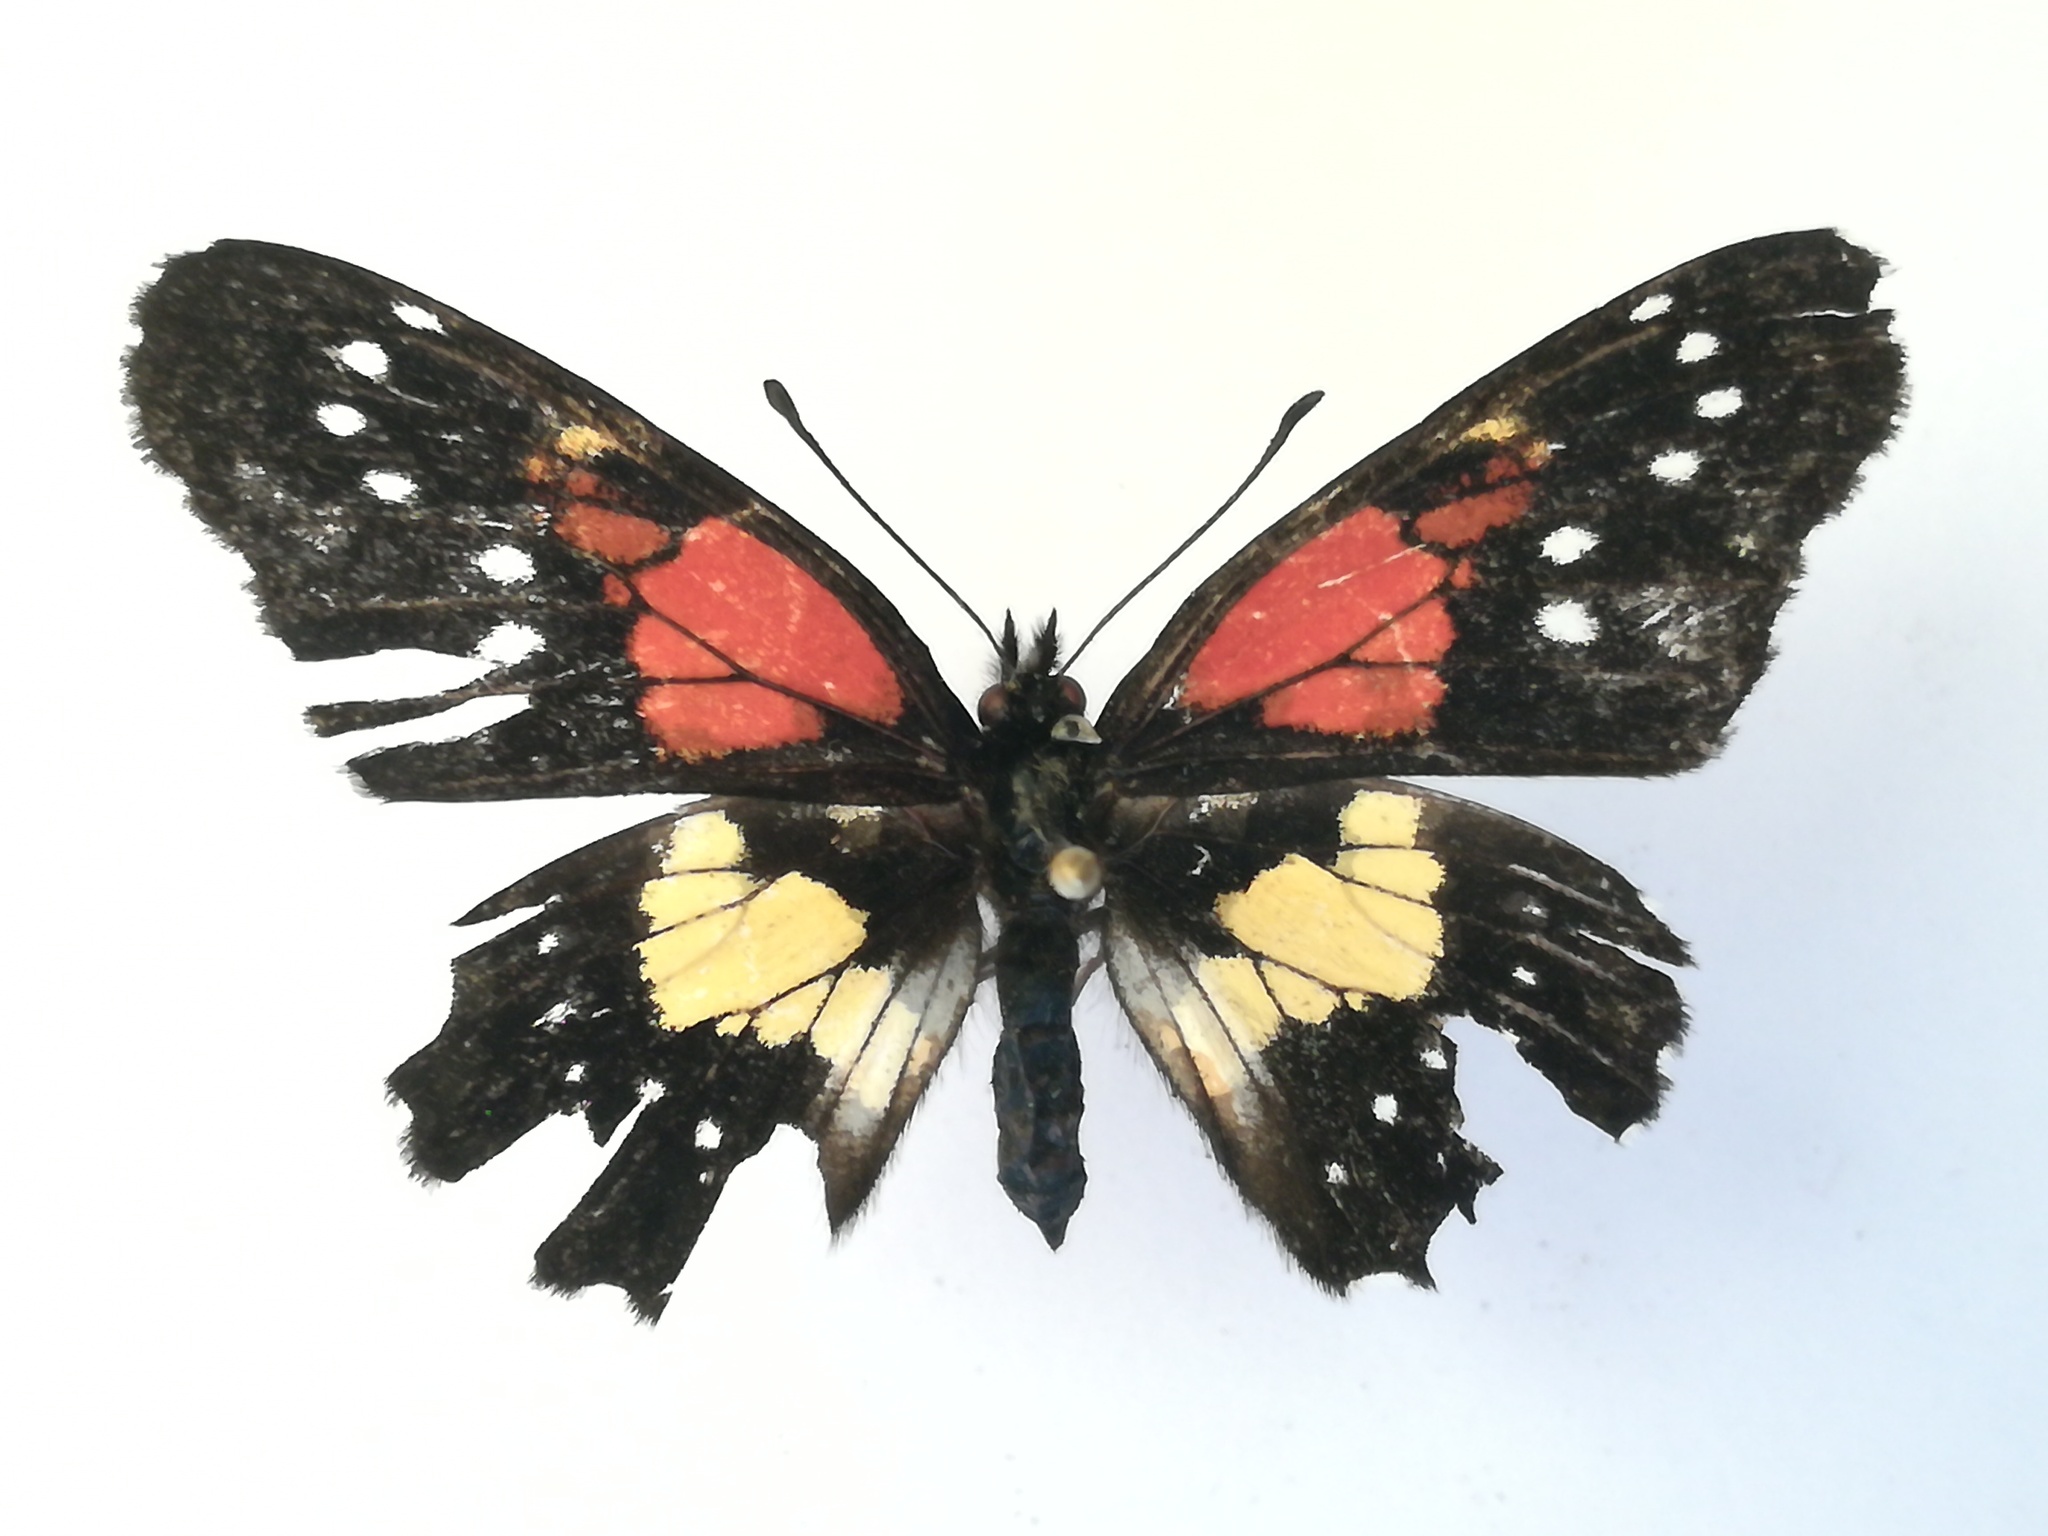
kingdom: Animalia
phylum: Arthropoda
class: Insecta
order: Lepidoptera
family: Nymphalidae
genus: Chlosyne
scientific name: Chlosyne gaudialis
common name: Gaudy checkerspot
